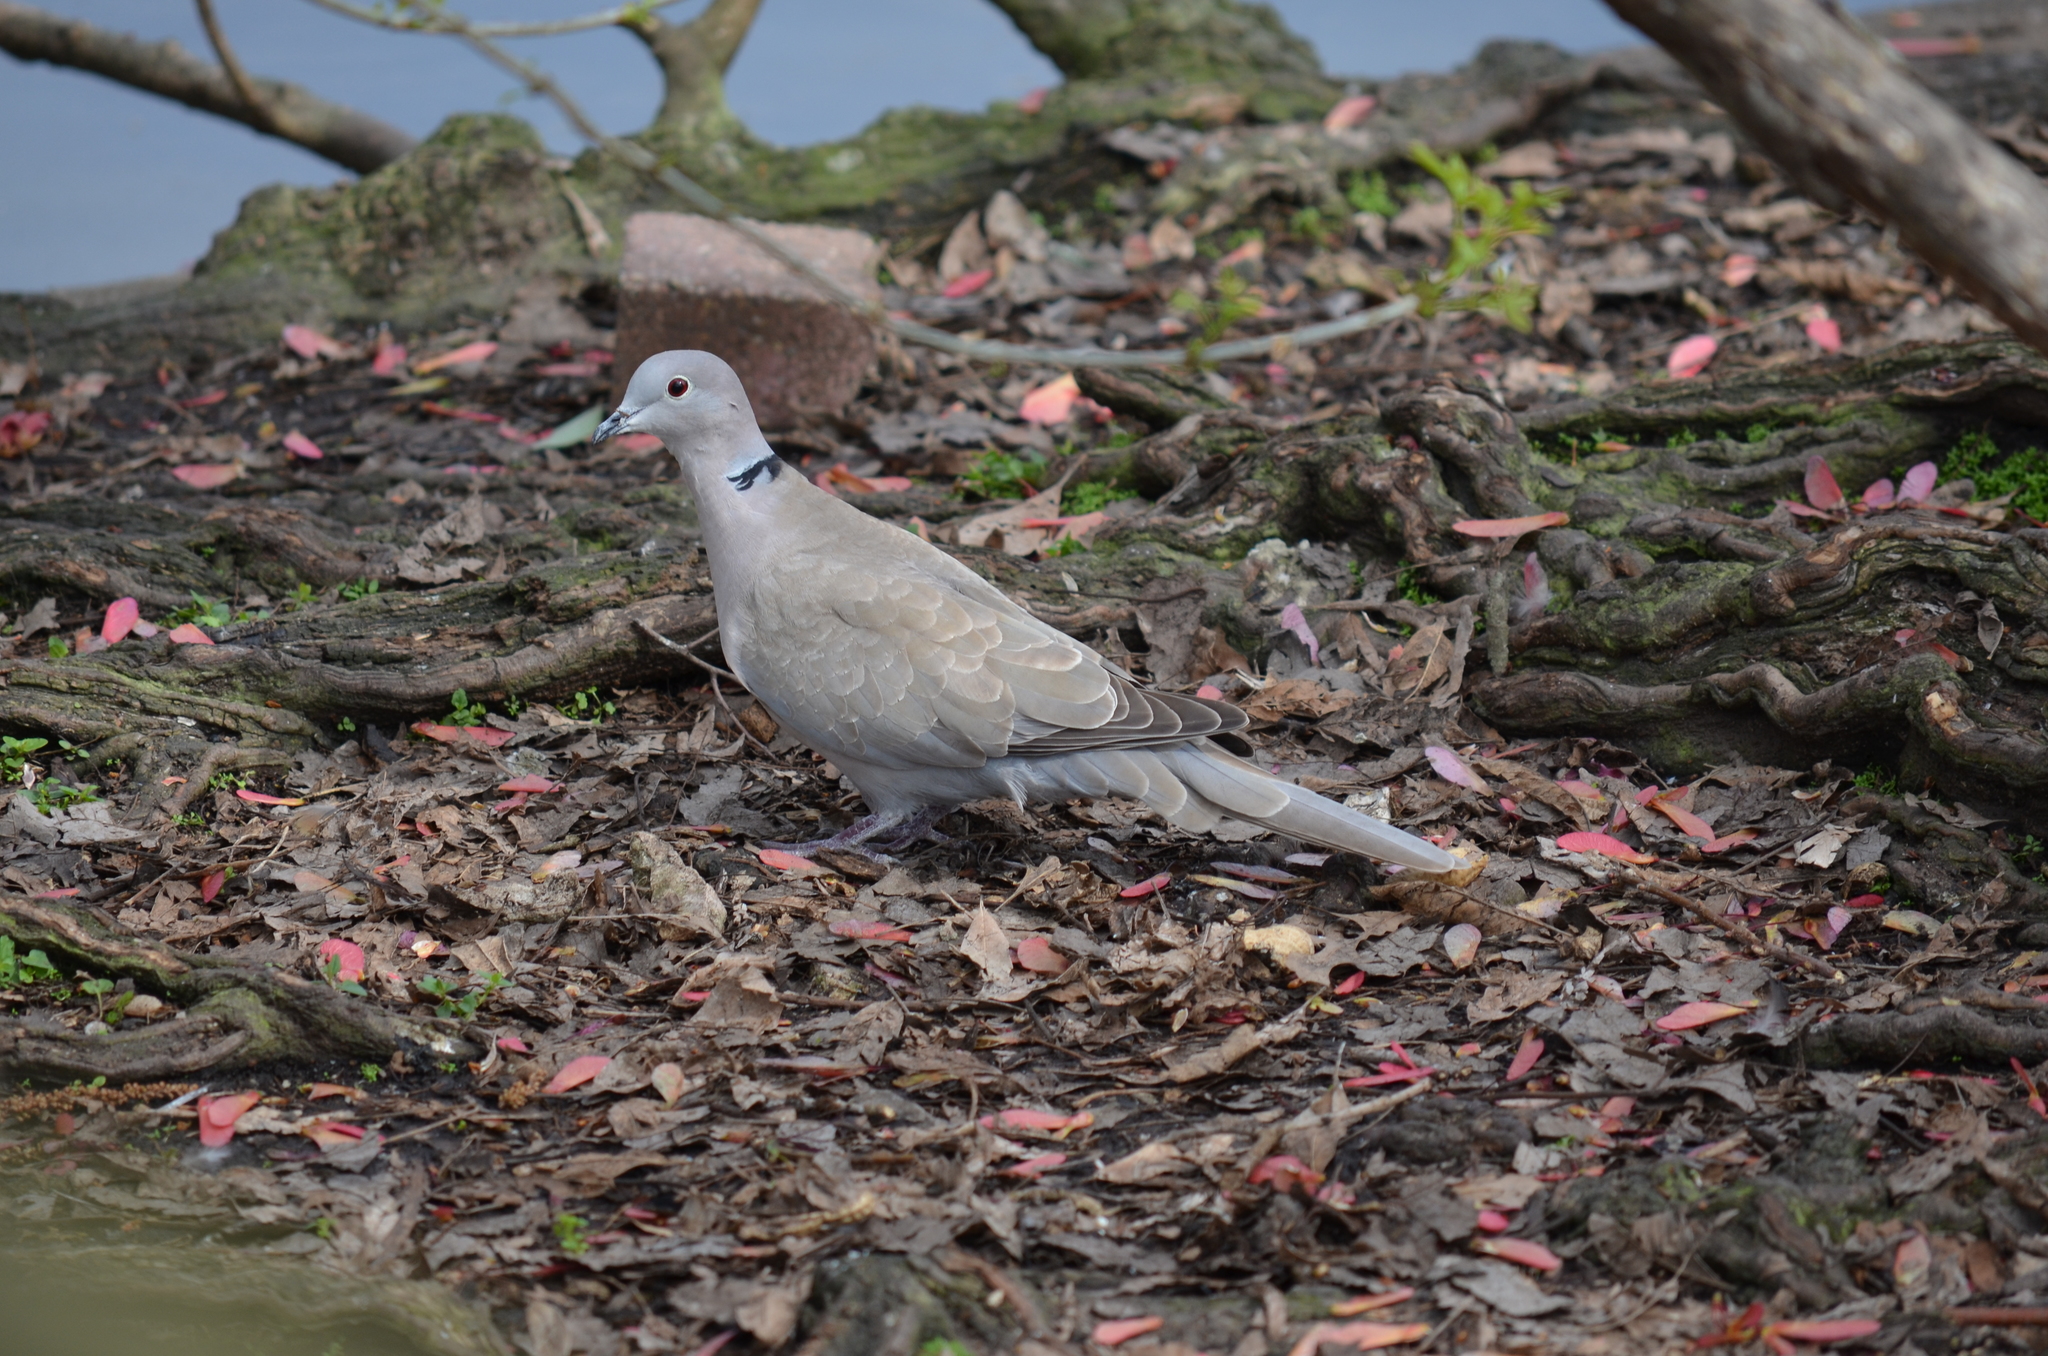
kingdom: Animalia
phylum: Chordata
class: Aves
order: Columbiformes
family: Columbidae
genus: Streptopelia
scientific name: Streptopelia decaocto
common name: Eurasian collared dove
